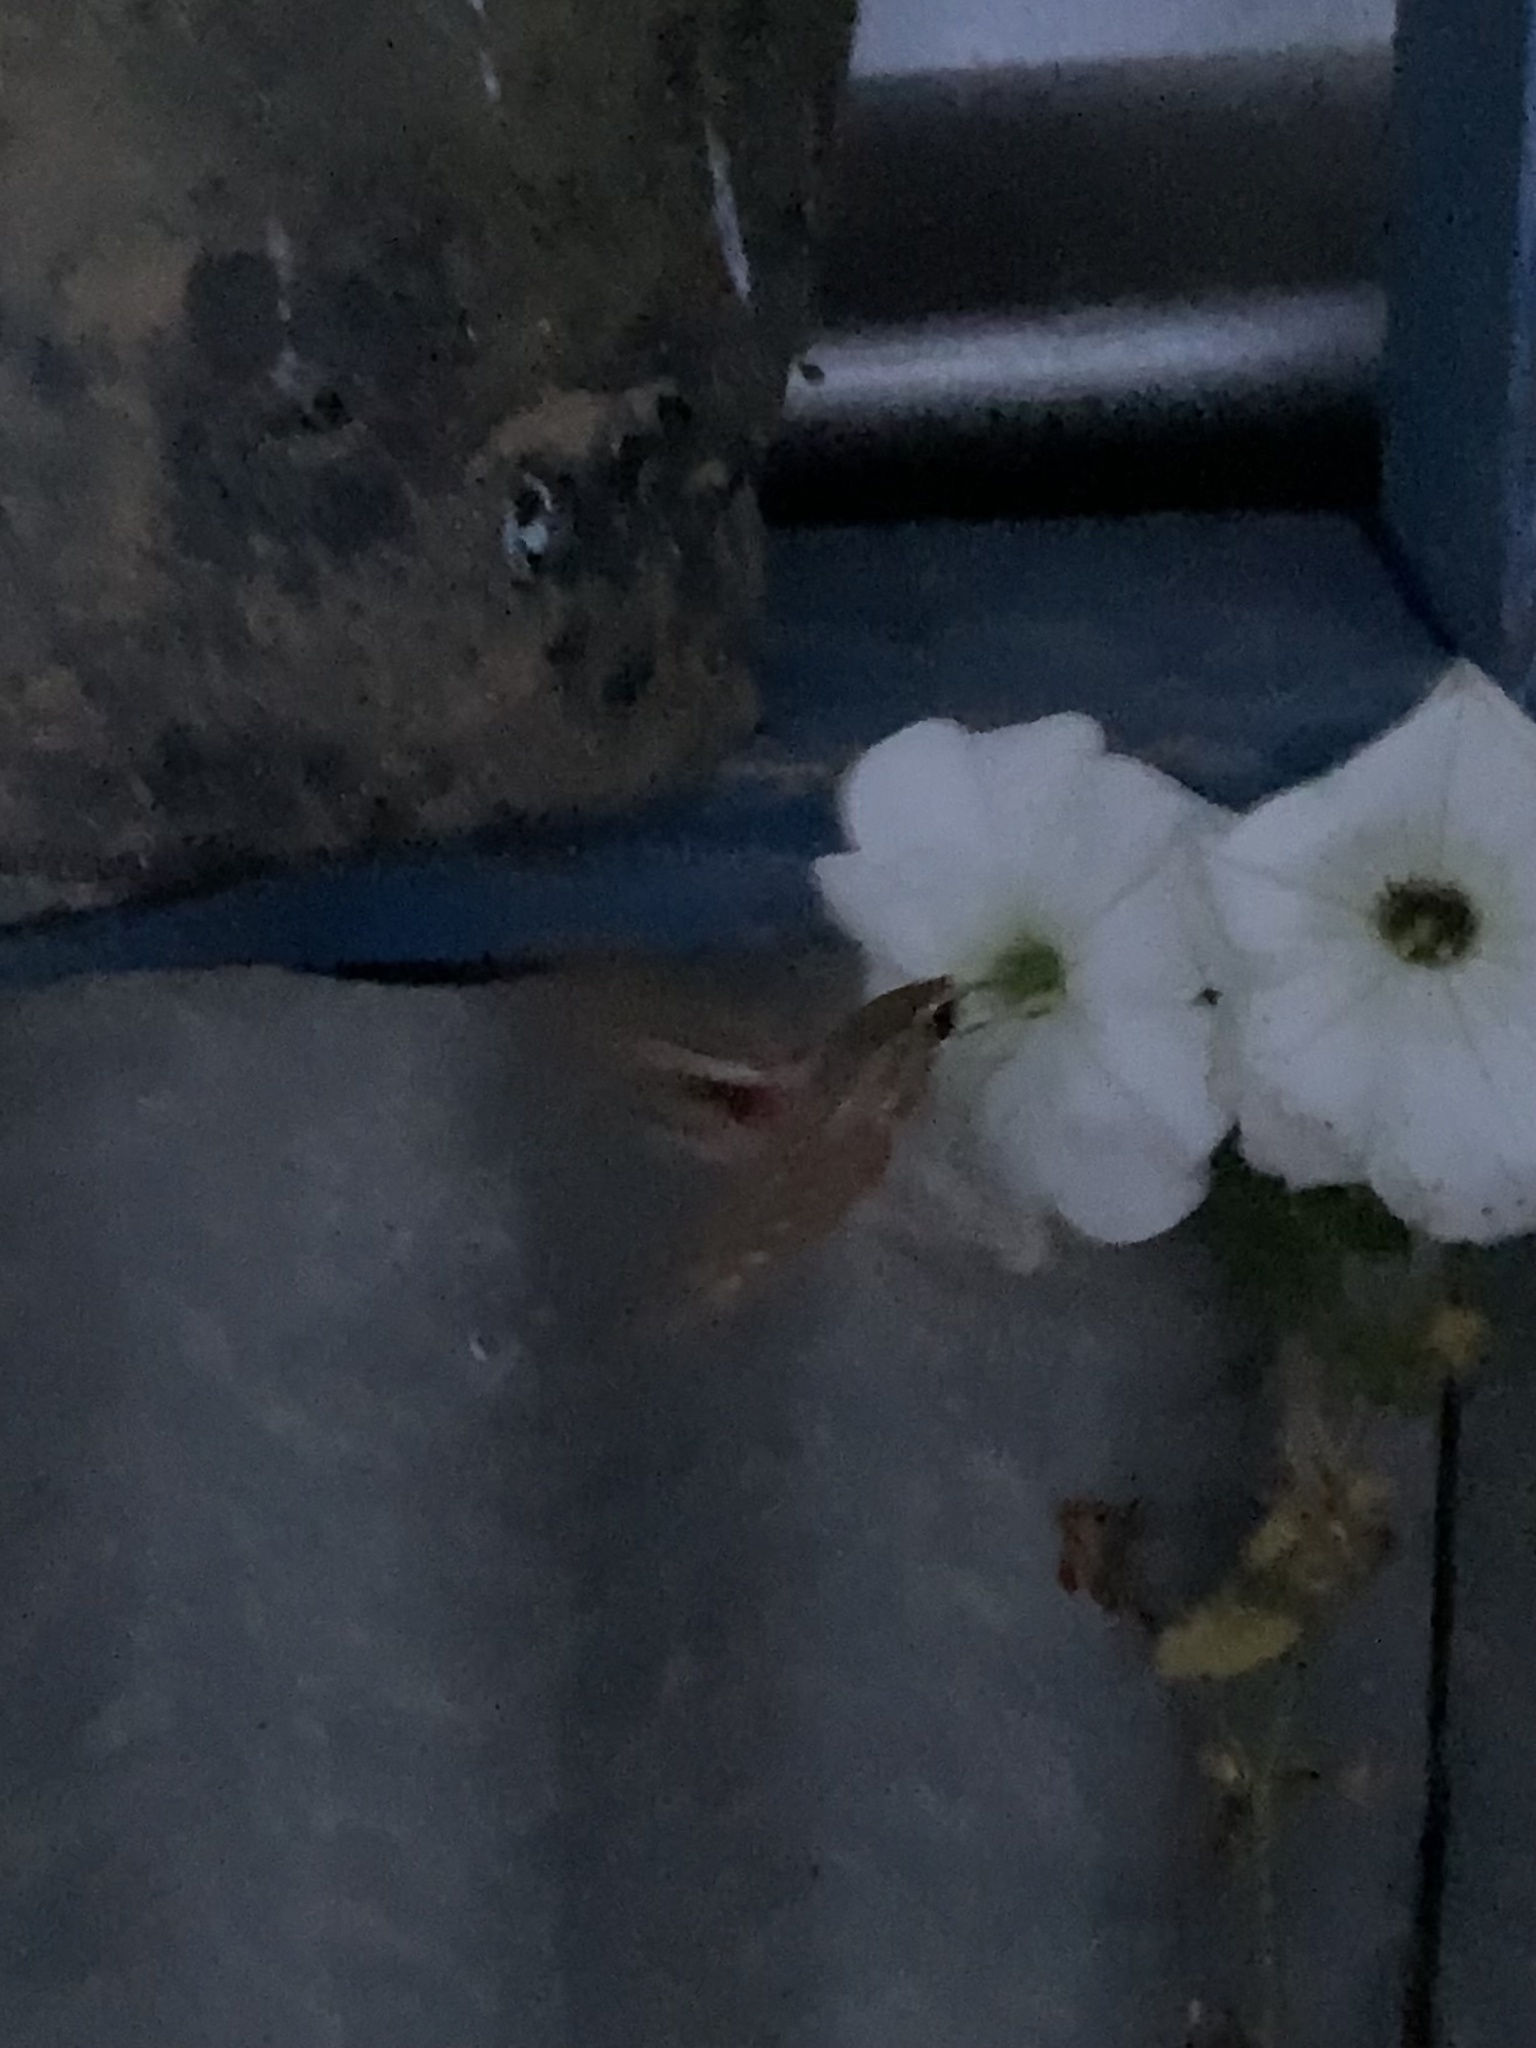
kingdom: Animalia
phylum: Arthropoda
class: Insecta
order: Lepidoptera
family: Sphingidae
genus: Hippotion
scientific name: Hippotion celerio
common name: Silver-striped hawk-moth
